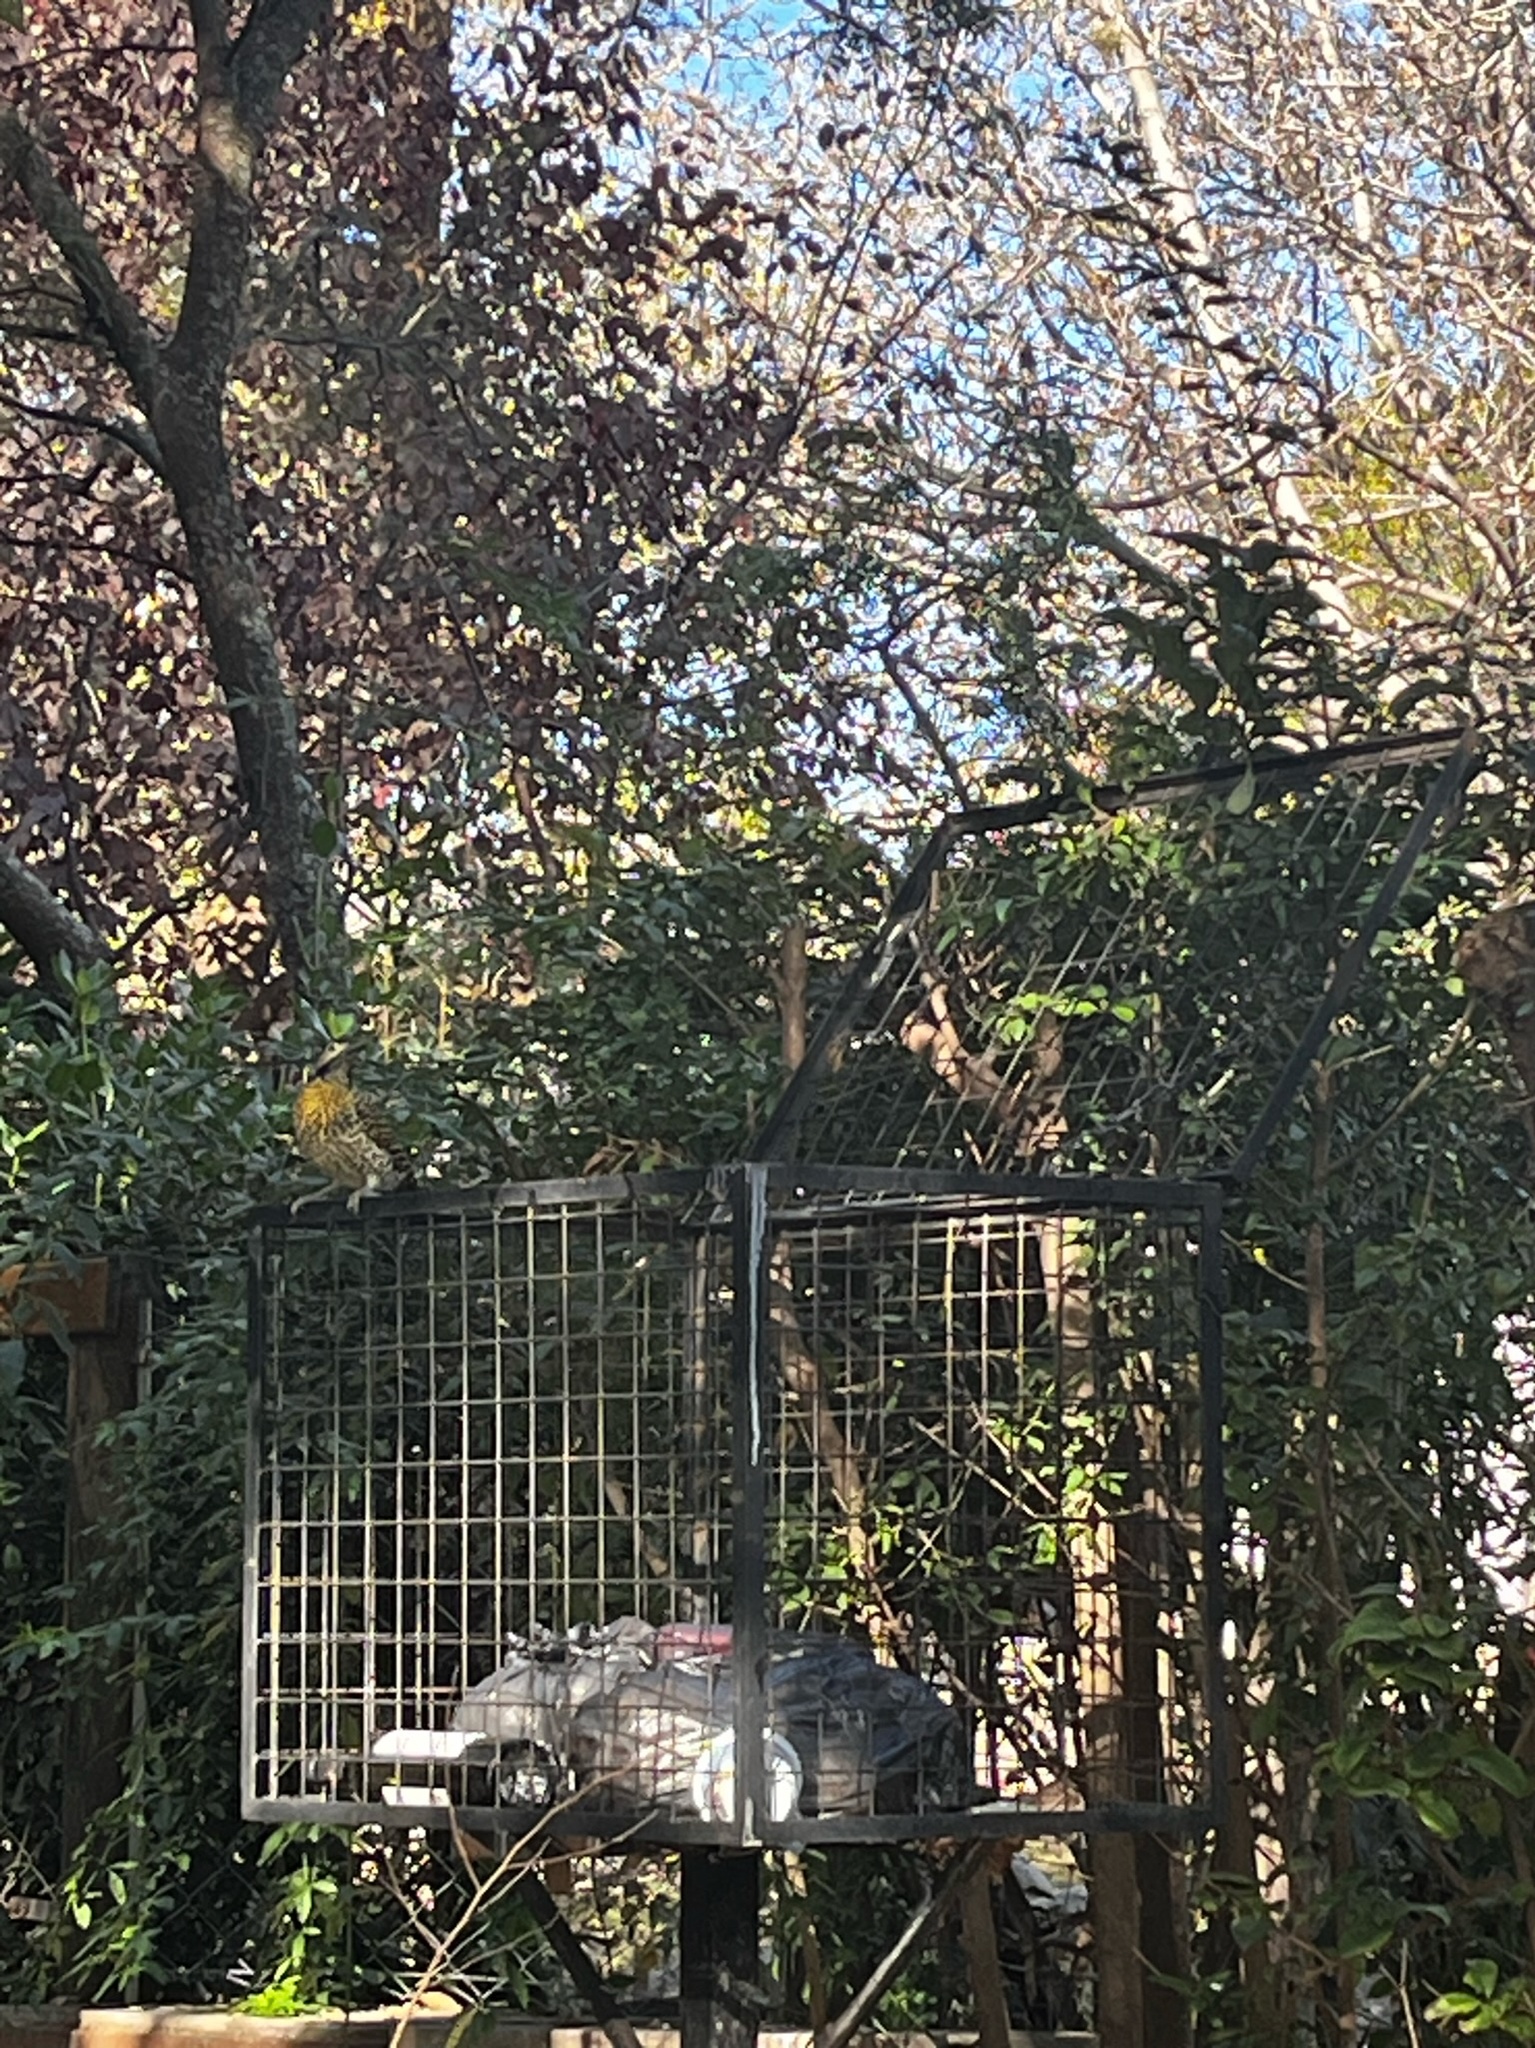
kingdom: Animalia
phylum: Chordata
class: Aves
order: Piciformes
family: Picidae
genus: Colaptes
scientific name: Colaptes campestris
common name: Campo flicker
